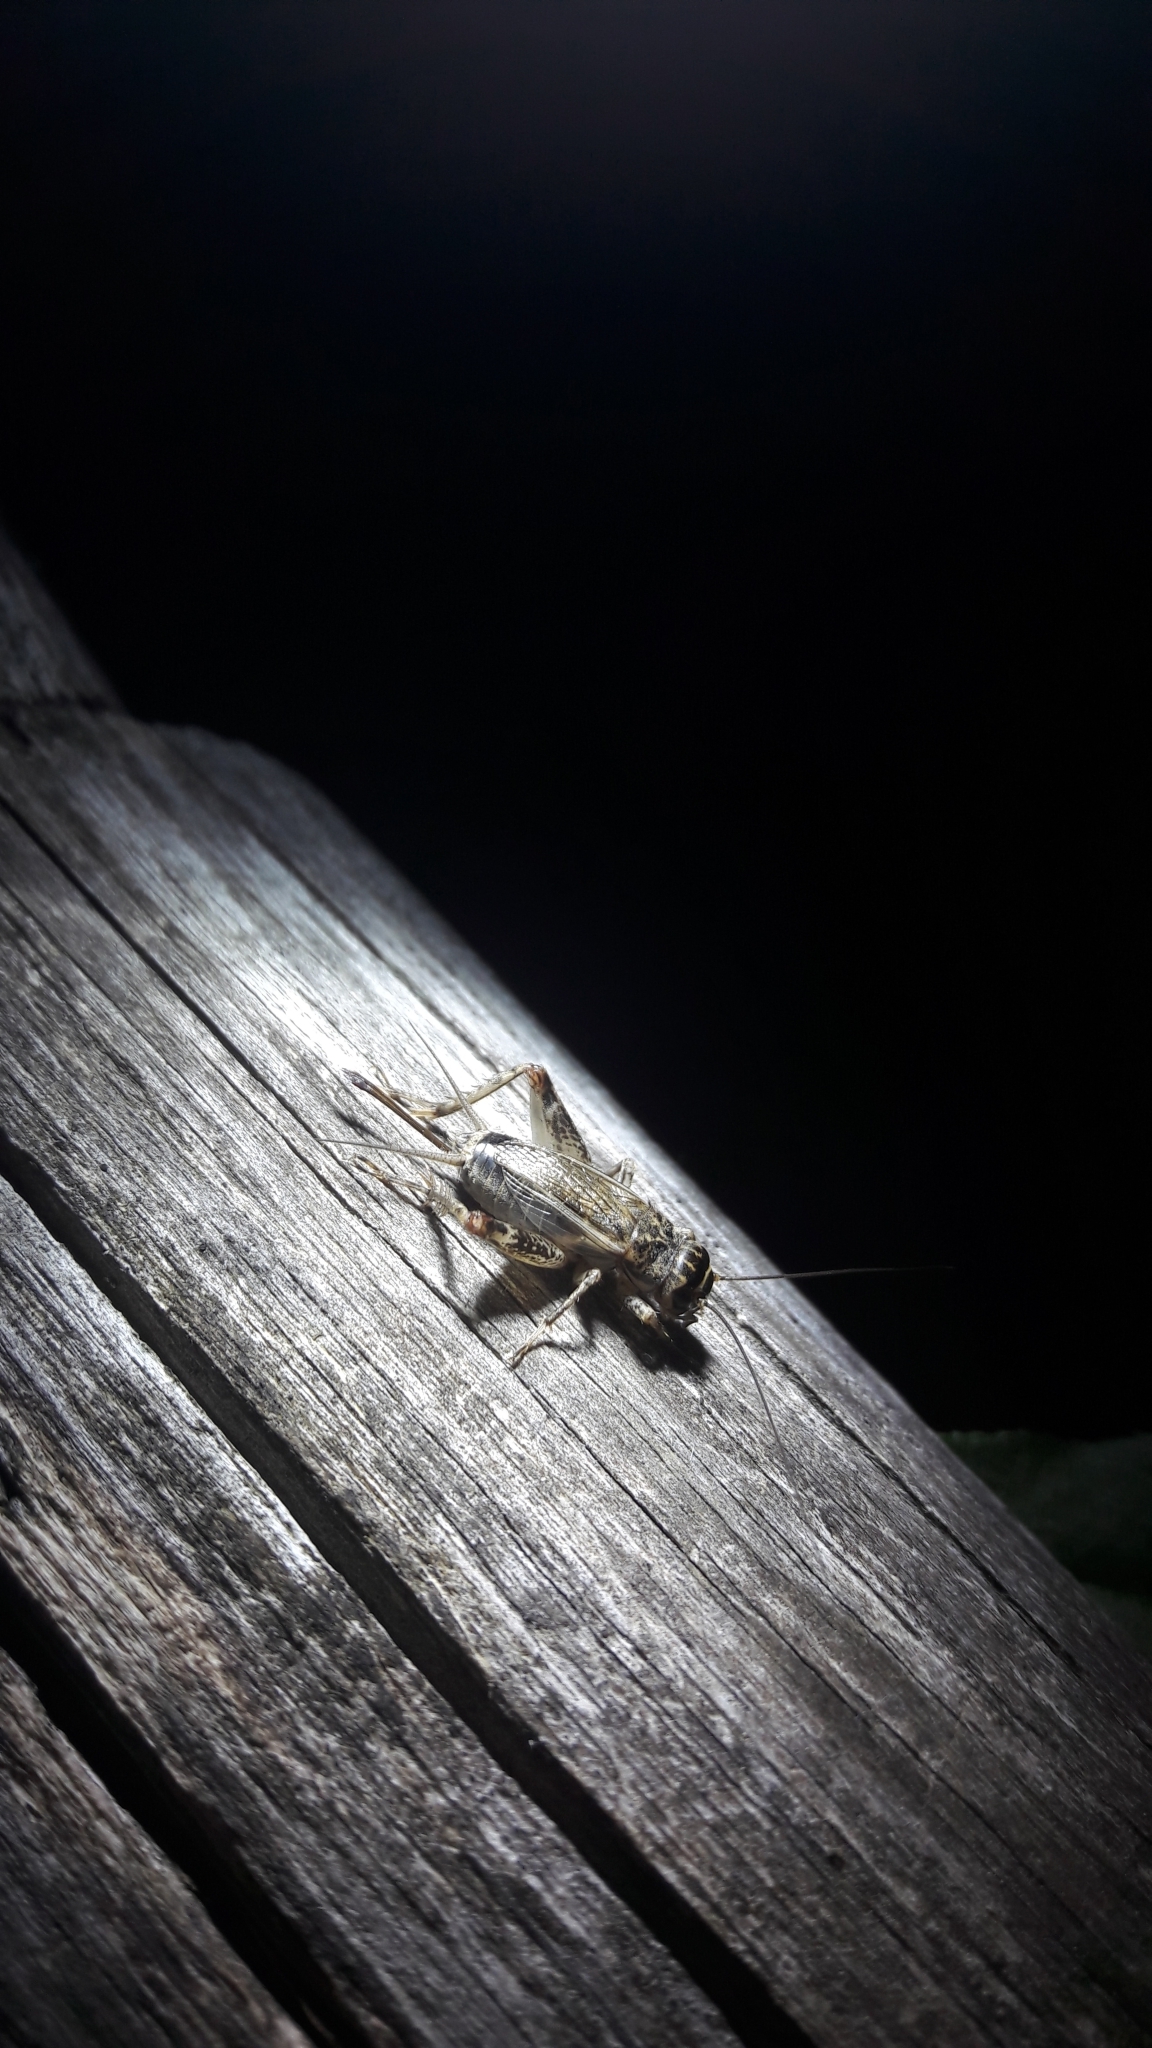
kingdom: Animalia
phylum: Arthropoda
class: Insecta
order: Orthoptera
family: Gryllidae
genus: Eumodicogryllus
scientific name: Eumodicogryllus bordigalensis
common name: Bordeaux cricket
